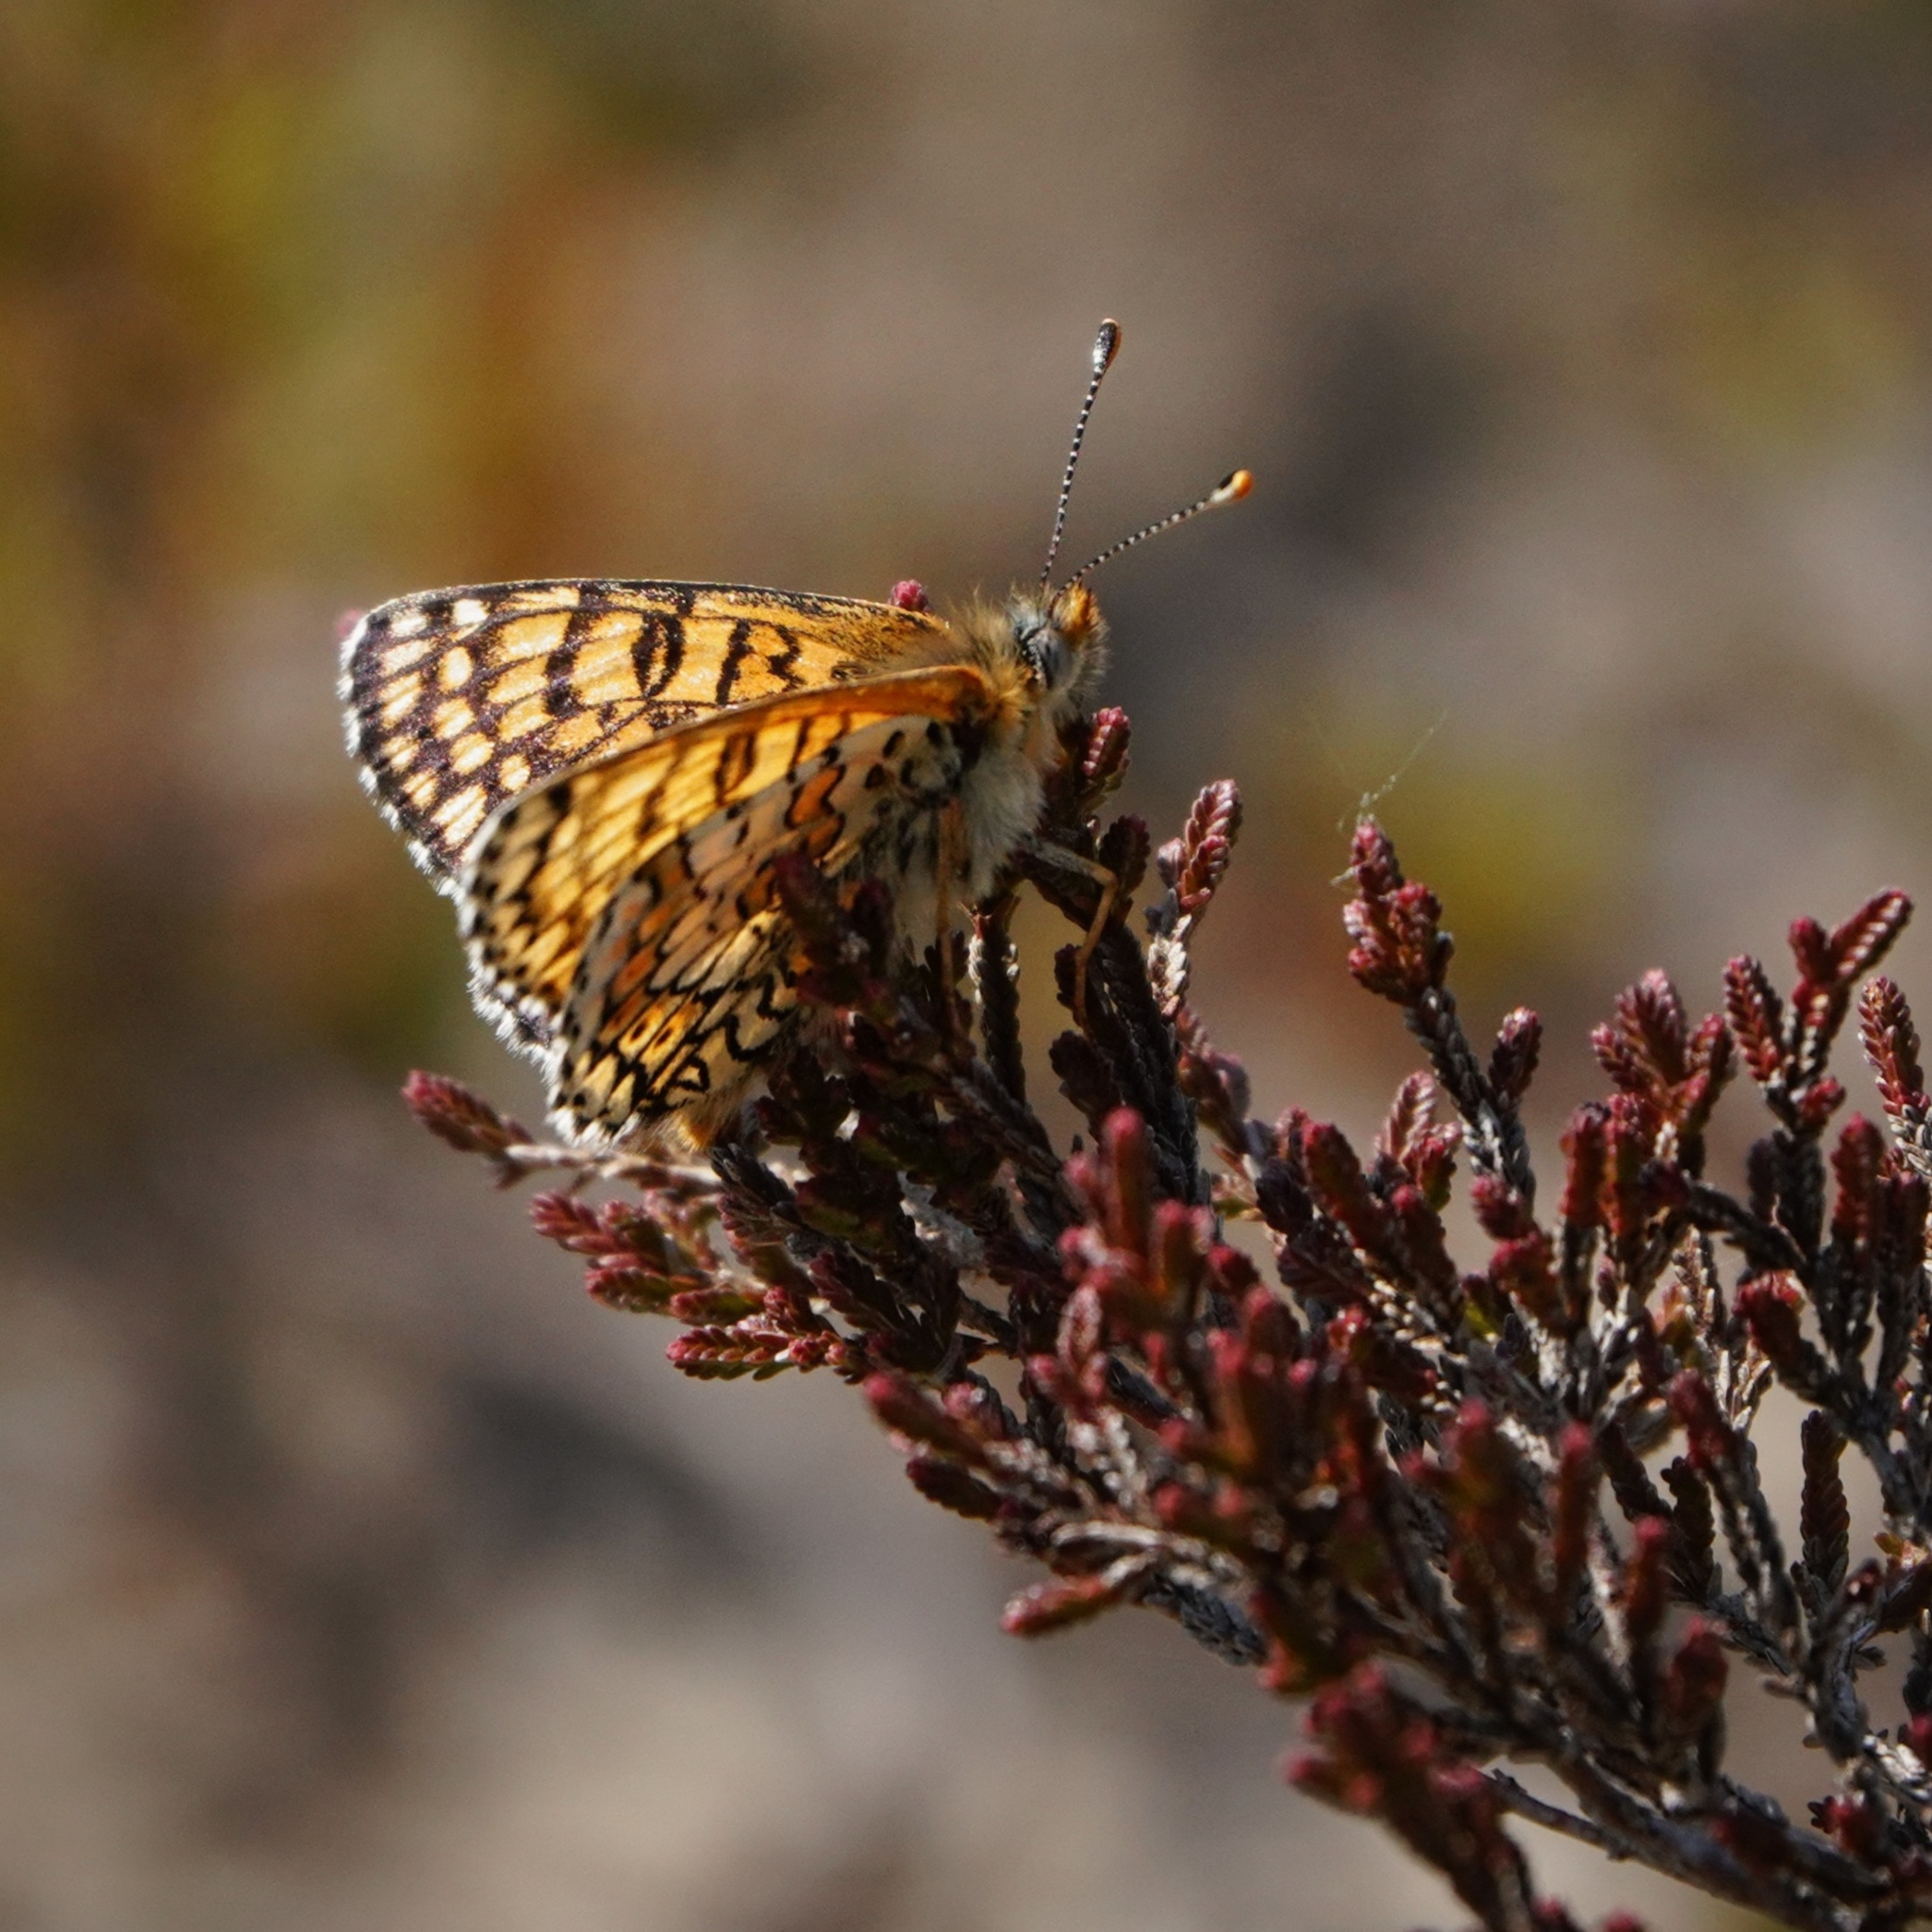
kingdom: Animalia
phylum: Arthropoda
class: Insecta
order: Lepidoptera
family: Nymphalidae
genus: Melitaea
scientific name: Melitaea cinxia
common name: Glanville fritillary
